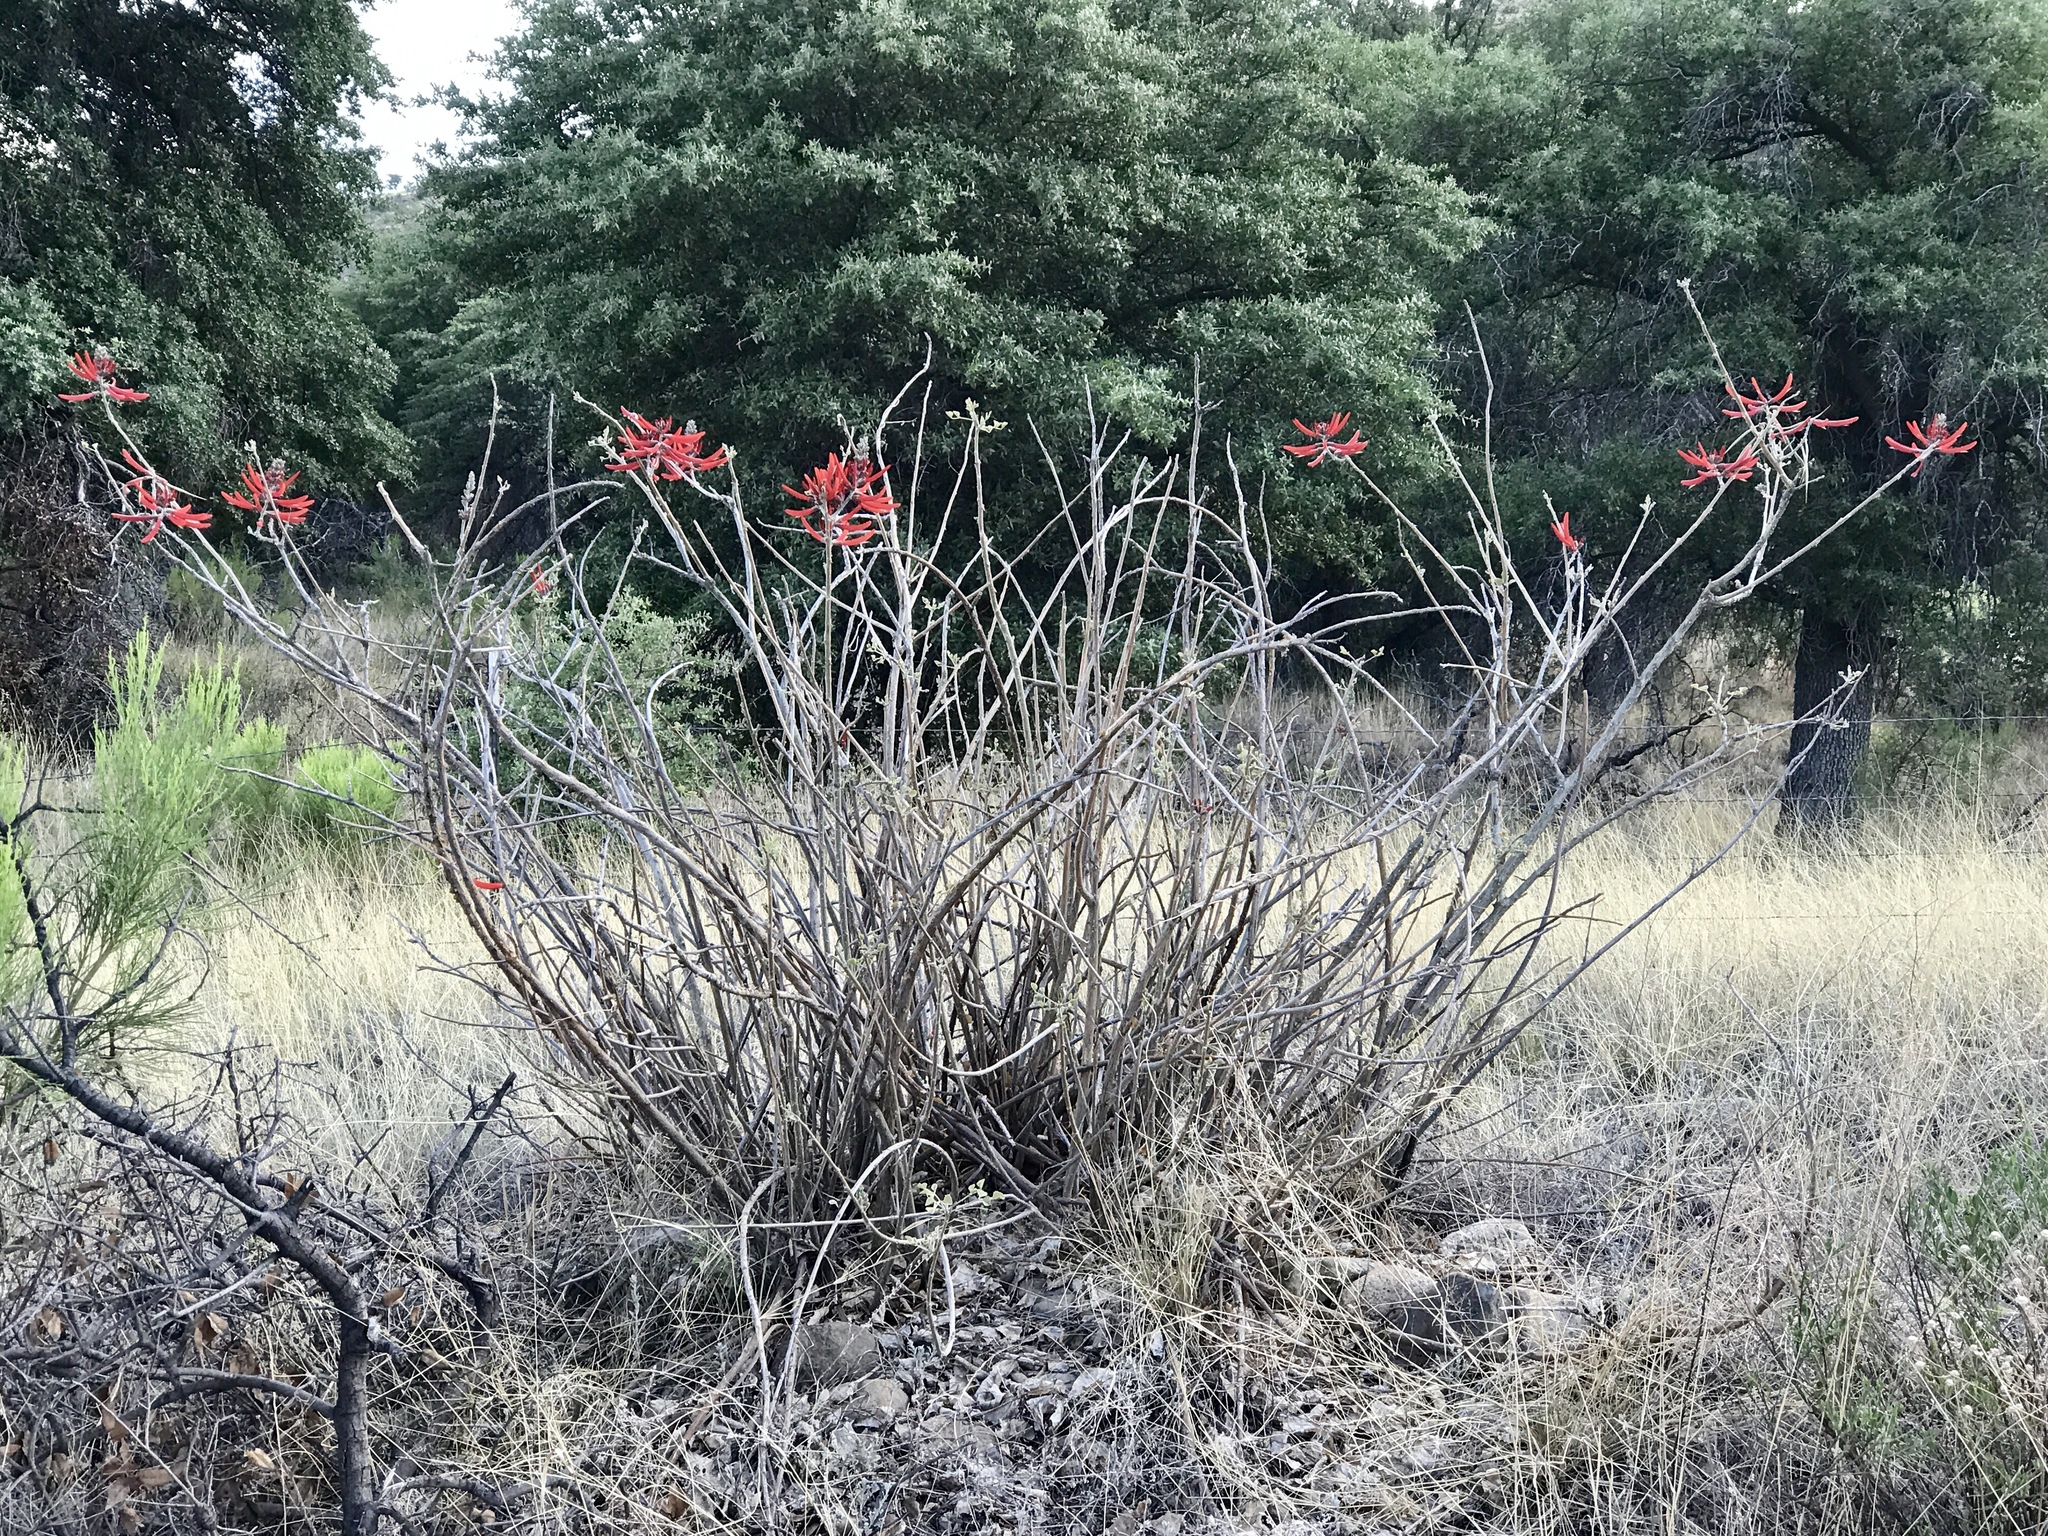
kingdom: Plantae
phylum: Tracheophyta
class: Magnoliopsida
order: Fabales
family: Fabaceae
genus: Erythrina
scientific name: Erythrina flabelliformis
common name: Chilicote
